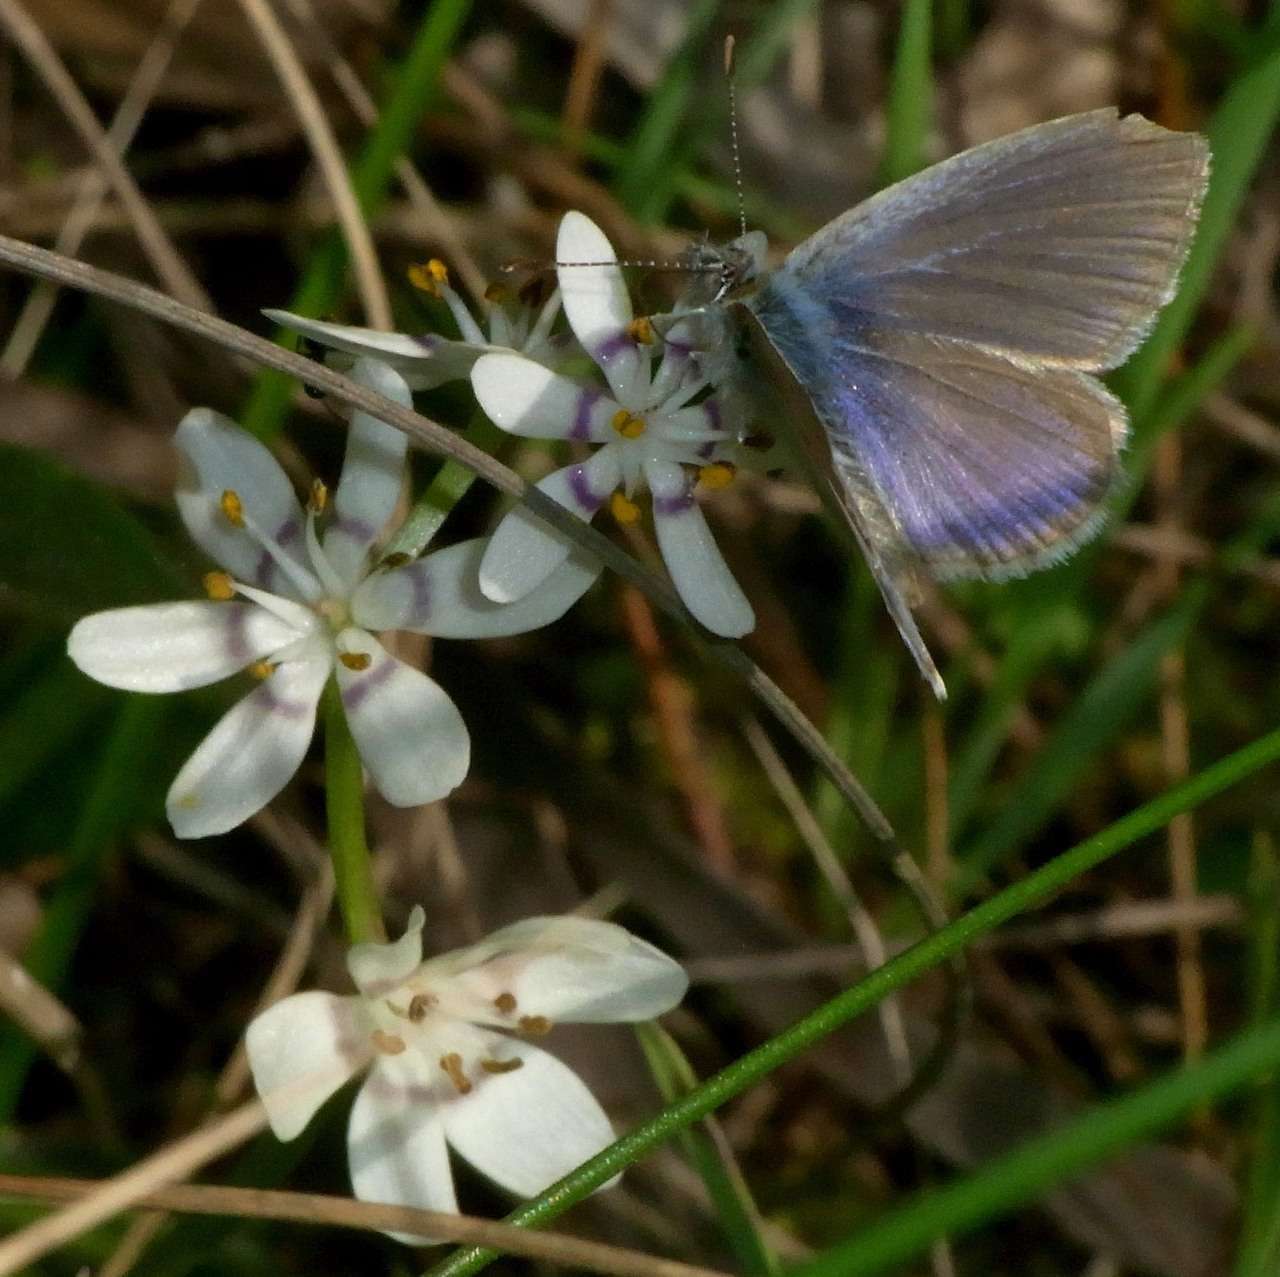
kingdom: Plantae
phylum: Tracheophyta
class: Liliopsida
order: Liliales
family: Colchicaceae
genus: Wurmbea
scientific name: Wurmbea dioica
